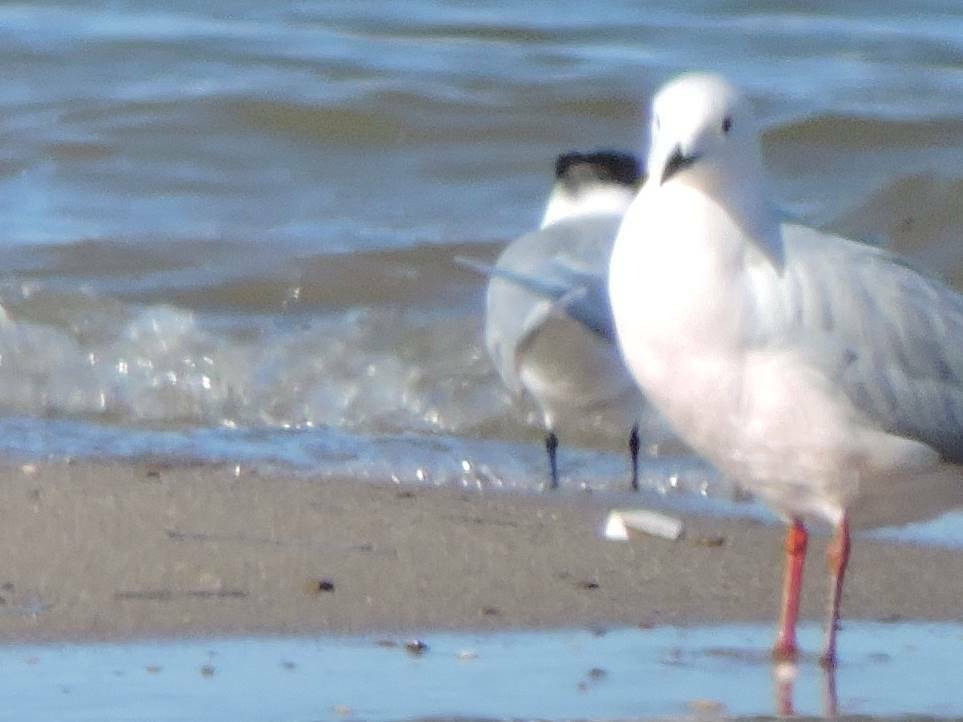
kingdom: Animalia
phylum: Chordata
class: Aves
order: Charadriiformes
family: Laridae
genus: Chroicocephalus
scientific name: Chroicocephalus genei
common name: Slender-billed gull
